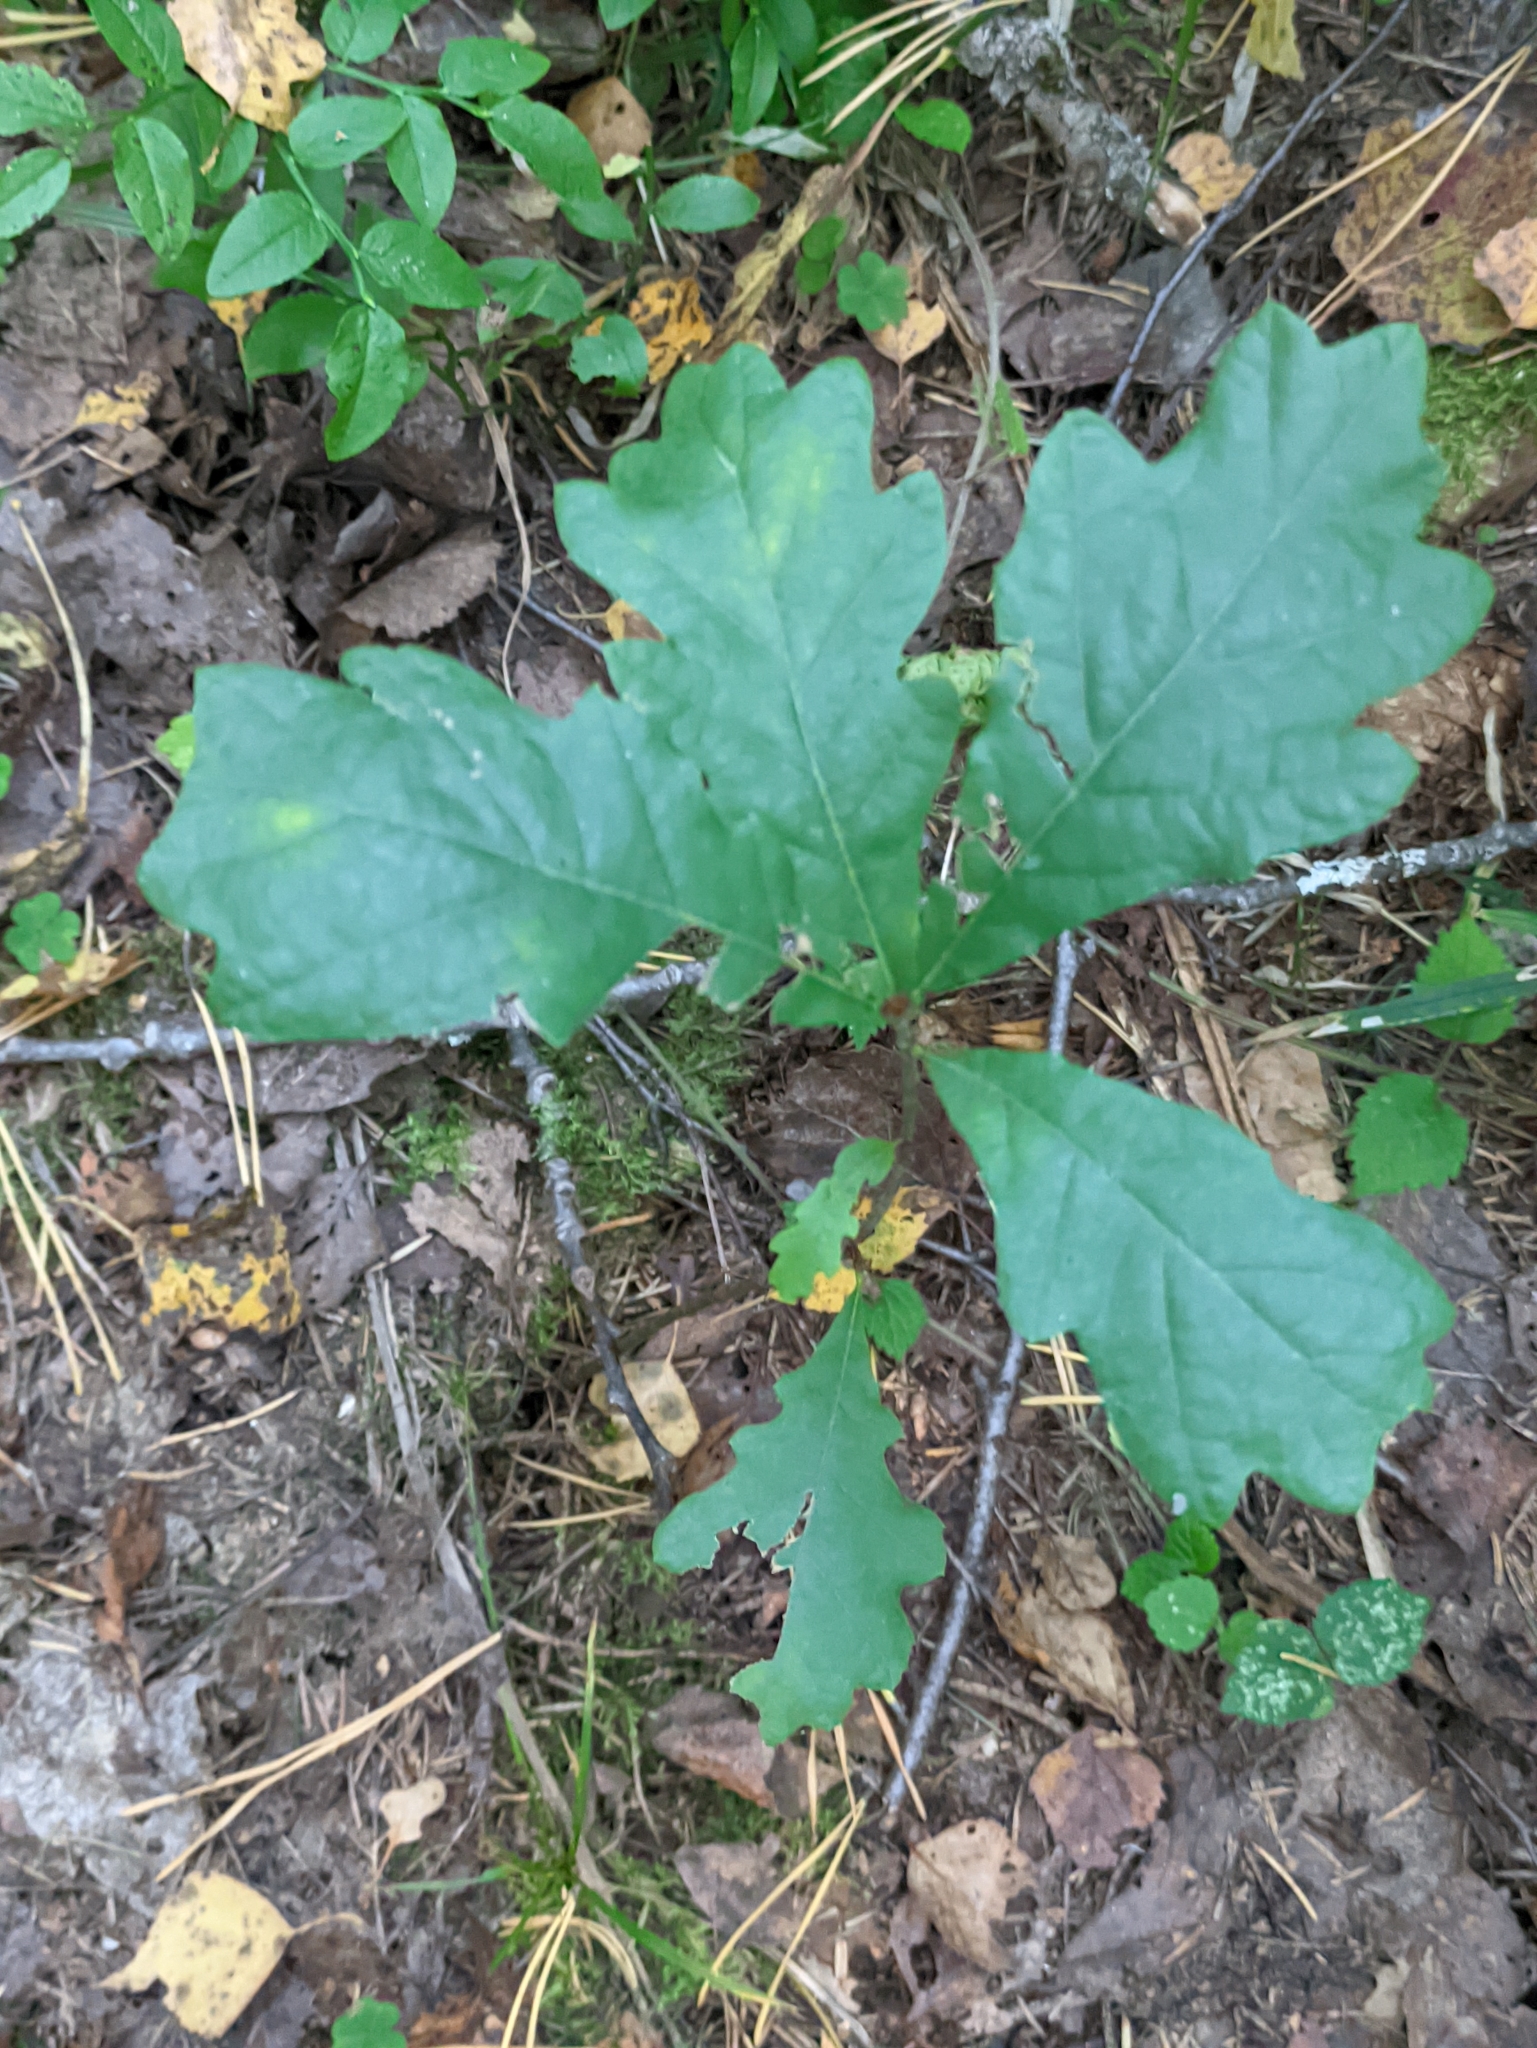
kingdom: Plantae
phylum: Tracheophyta
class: Magnoliopsida
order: Fagales
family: Fagaceae
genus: Quercus
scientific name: Quercus robur
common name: Pedunculate oak
